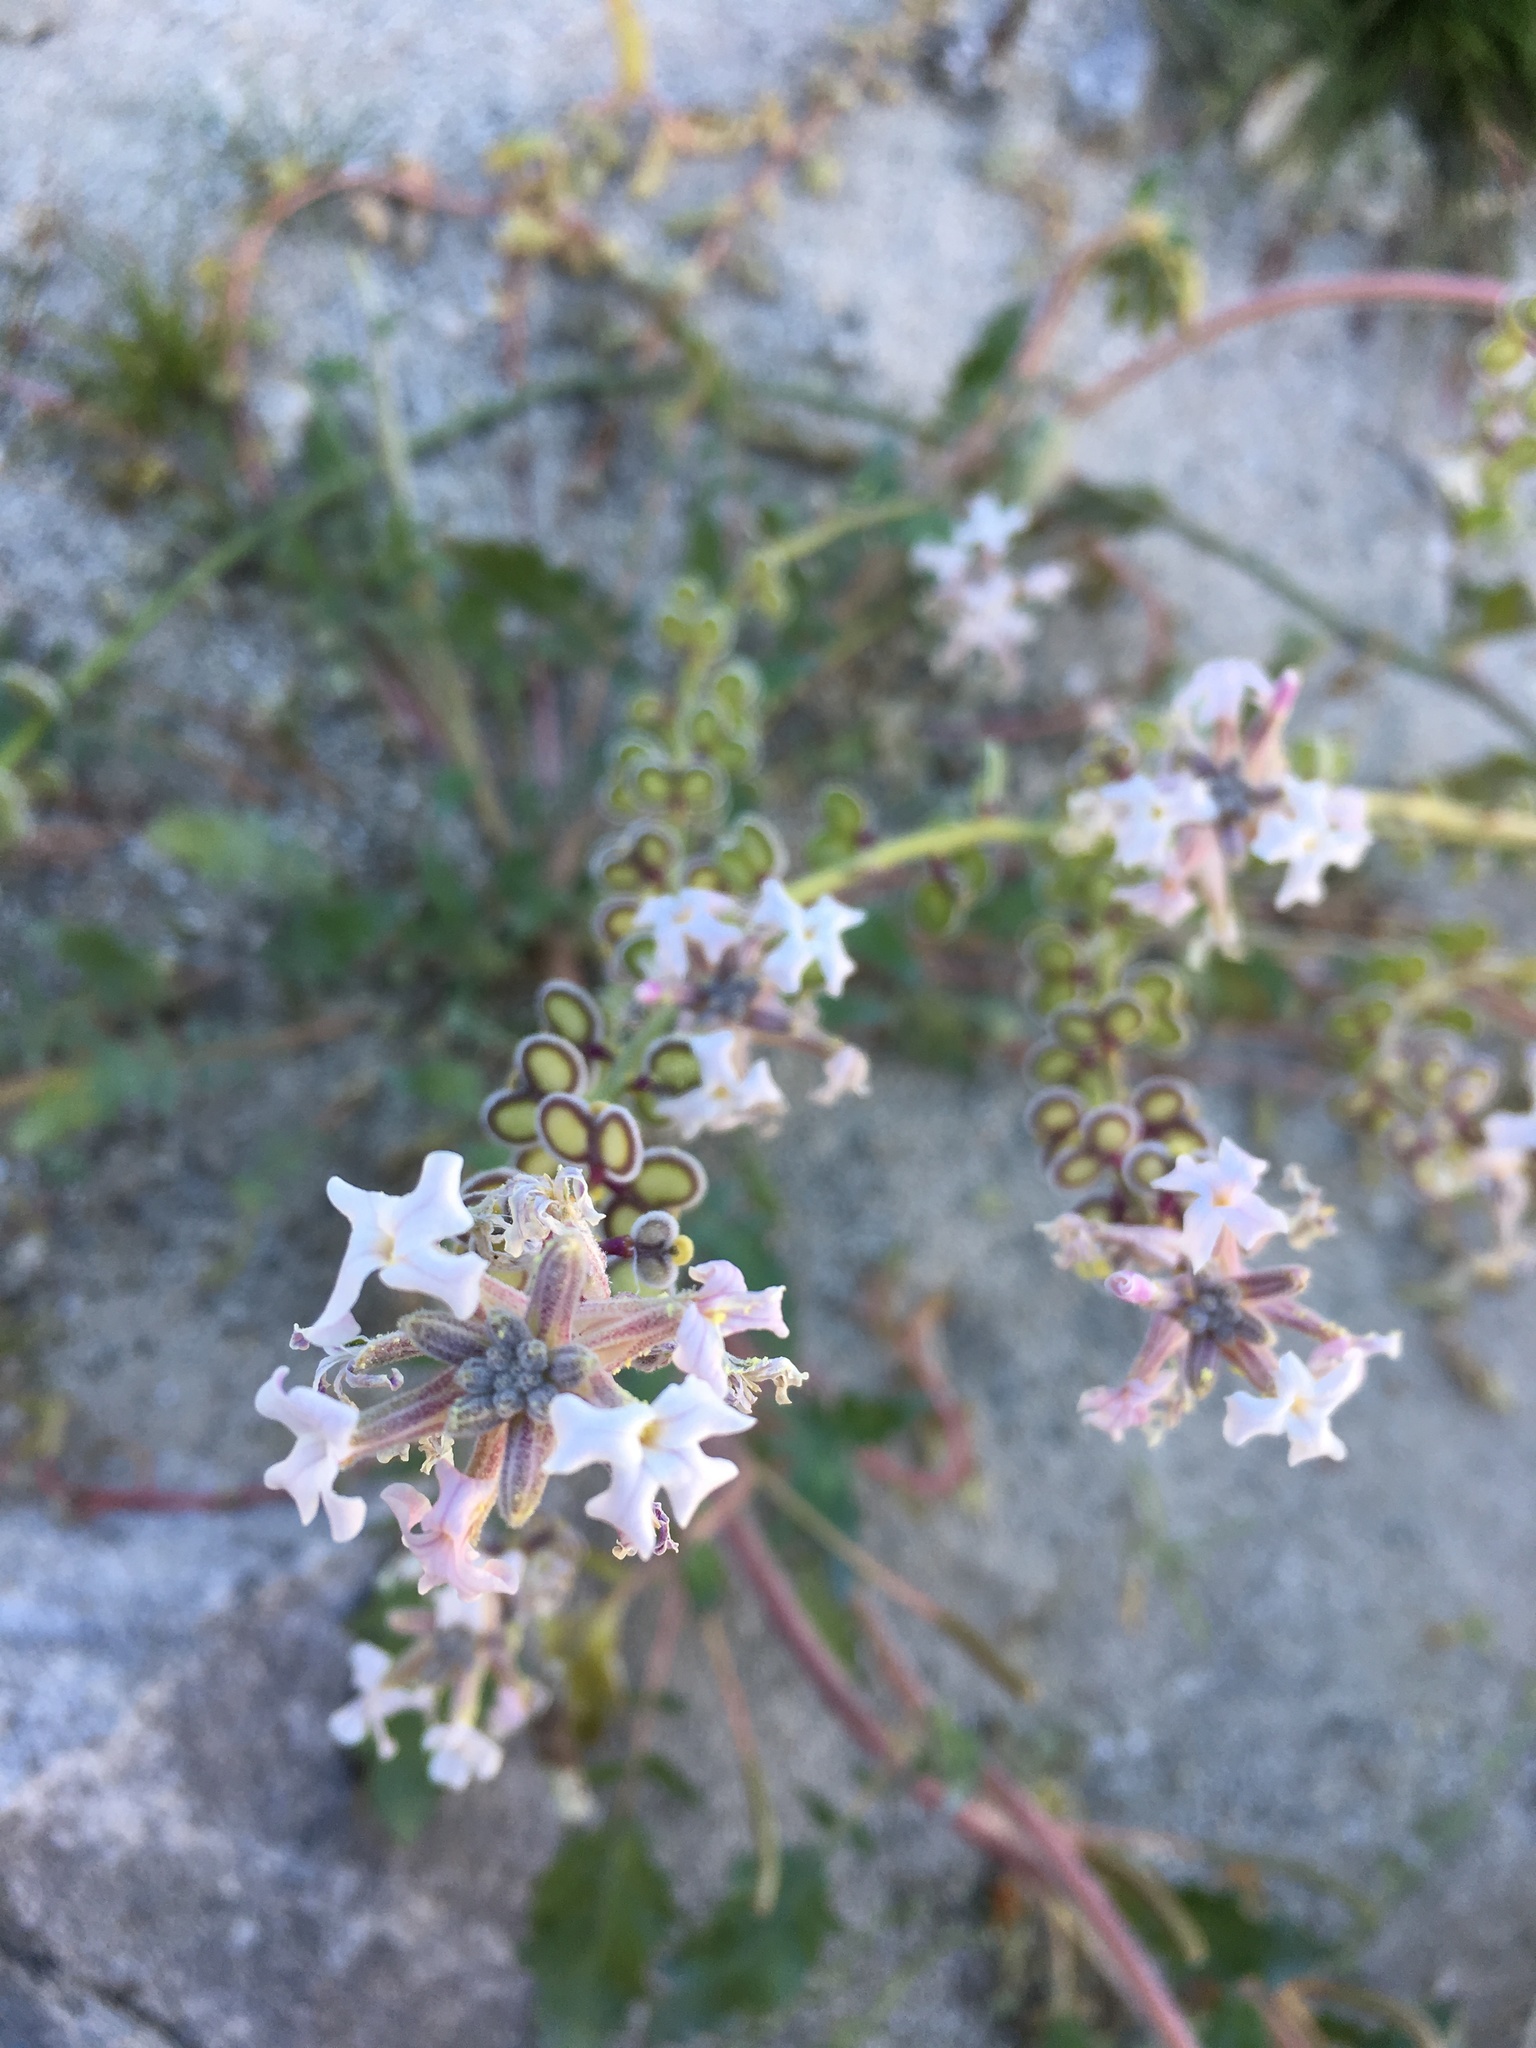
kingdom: Plantae
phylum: Tracheophyta
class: Magnoliopsida
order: Brassicales
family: Brassicaceae
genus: Dithyrea
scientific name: Dithyrea californica
